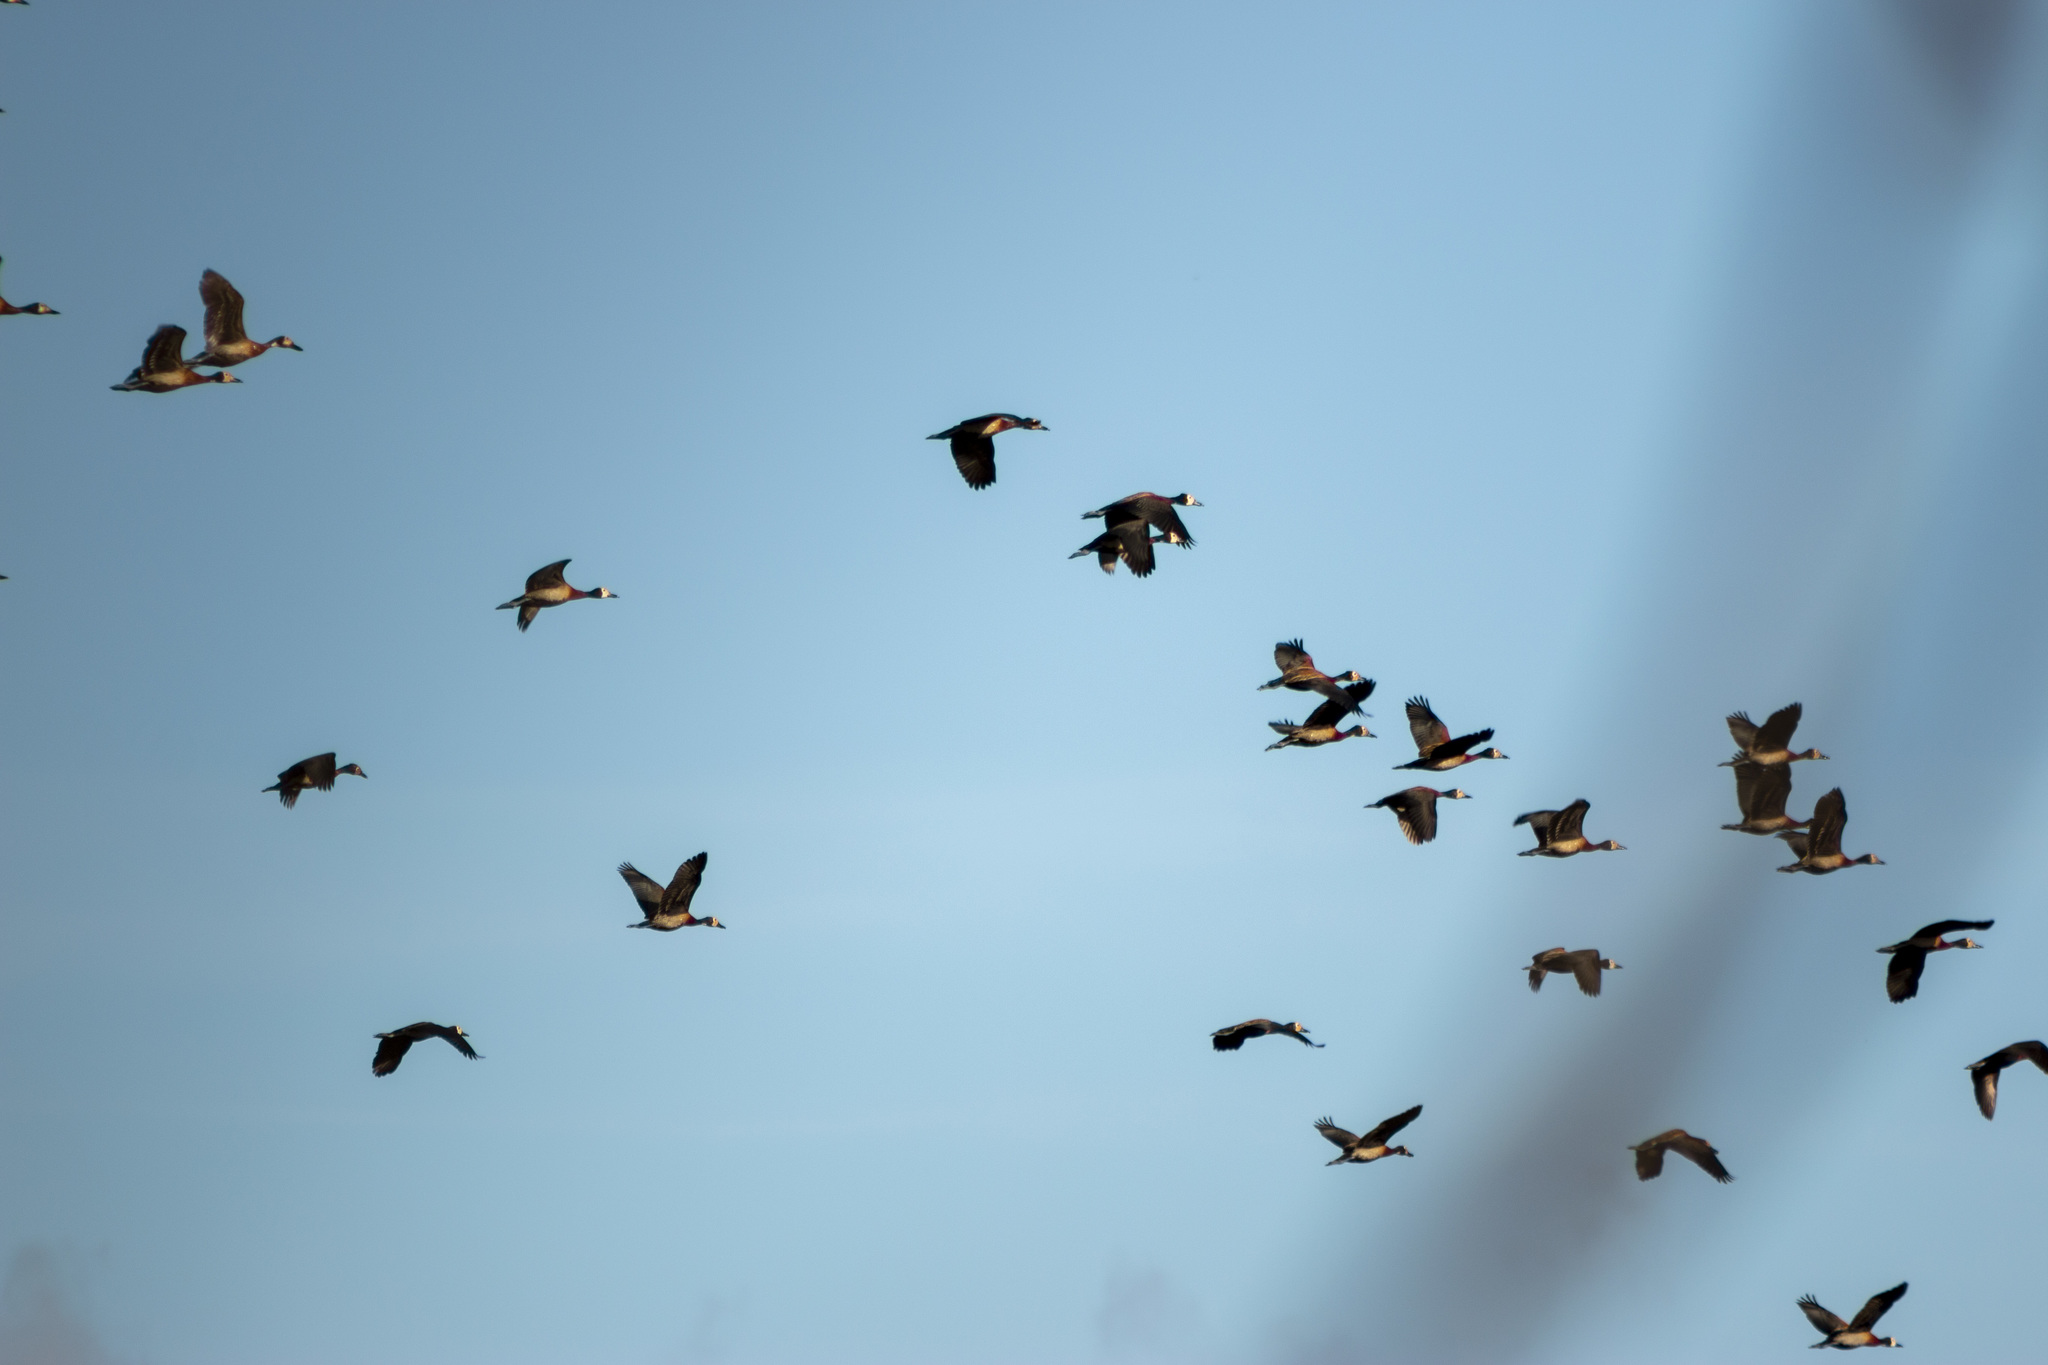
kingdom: Animalia
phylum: Chordata
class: Aves
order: Anseriformes
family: Anatidae
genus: Dendrocygna
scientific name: Dendrocygna viduata
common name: White-faced whistling duck
